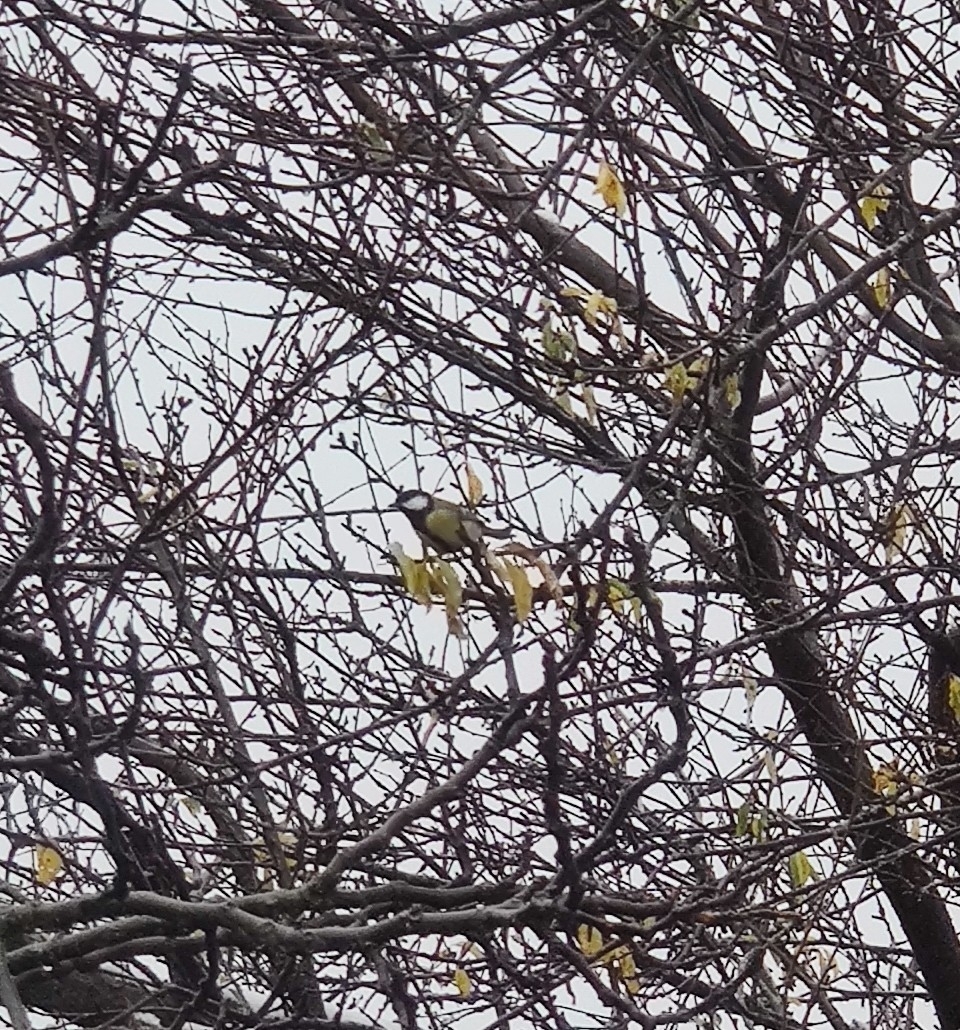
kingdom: Animalia
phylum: Chordata
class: Aves
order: Passeriformes
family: Paridae
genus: Parus
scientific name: Parus major
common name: Great tit
